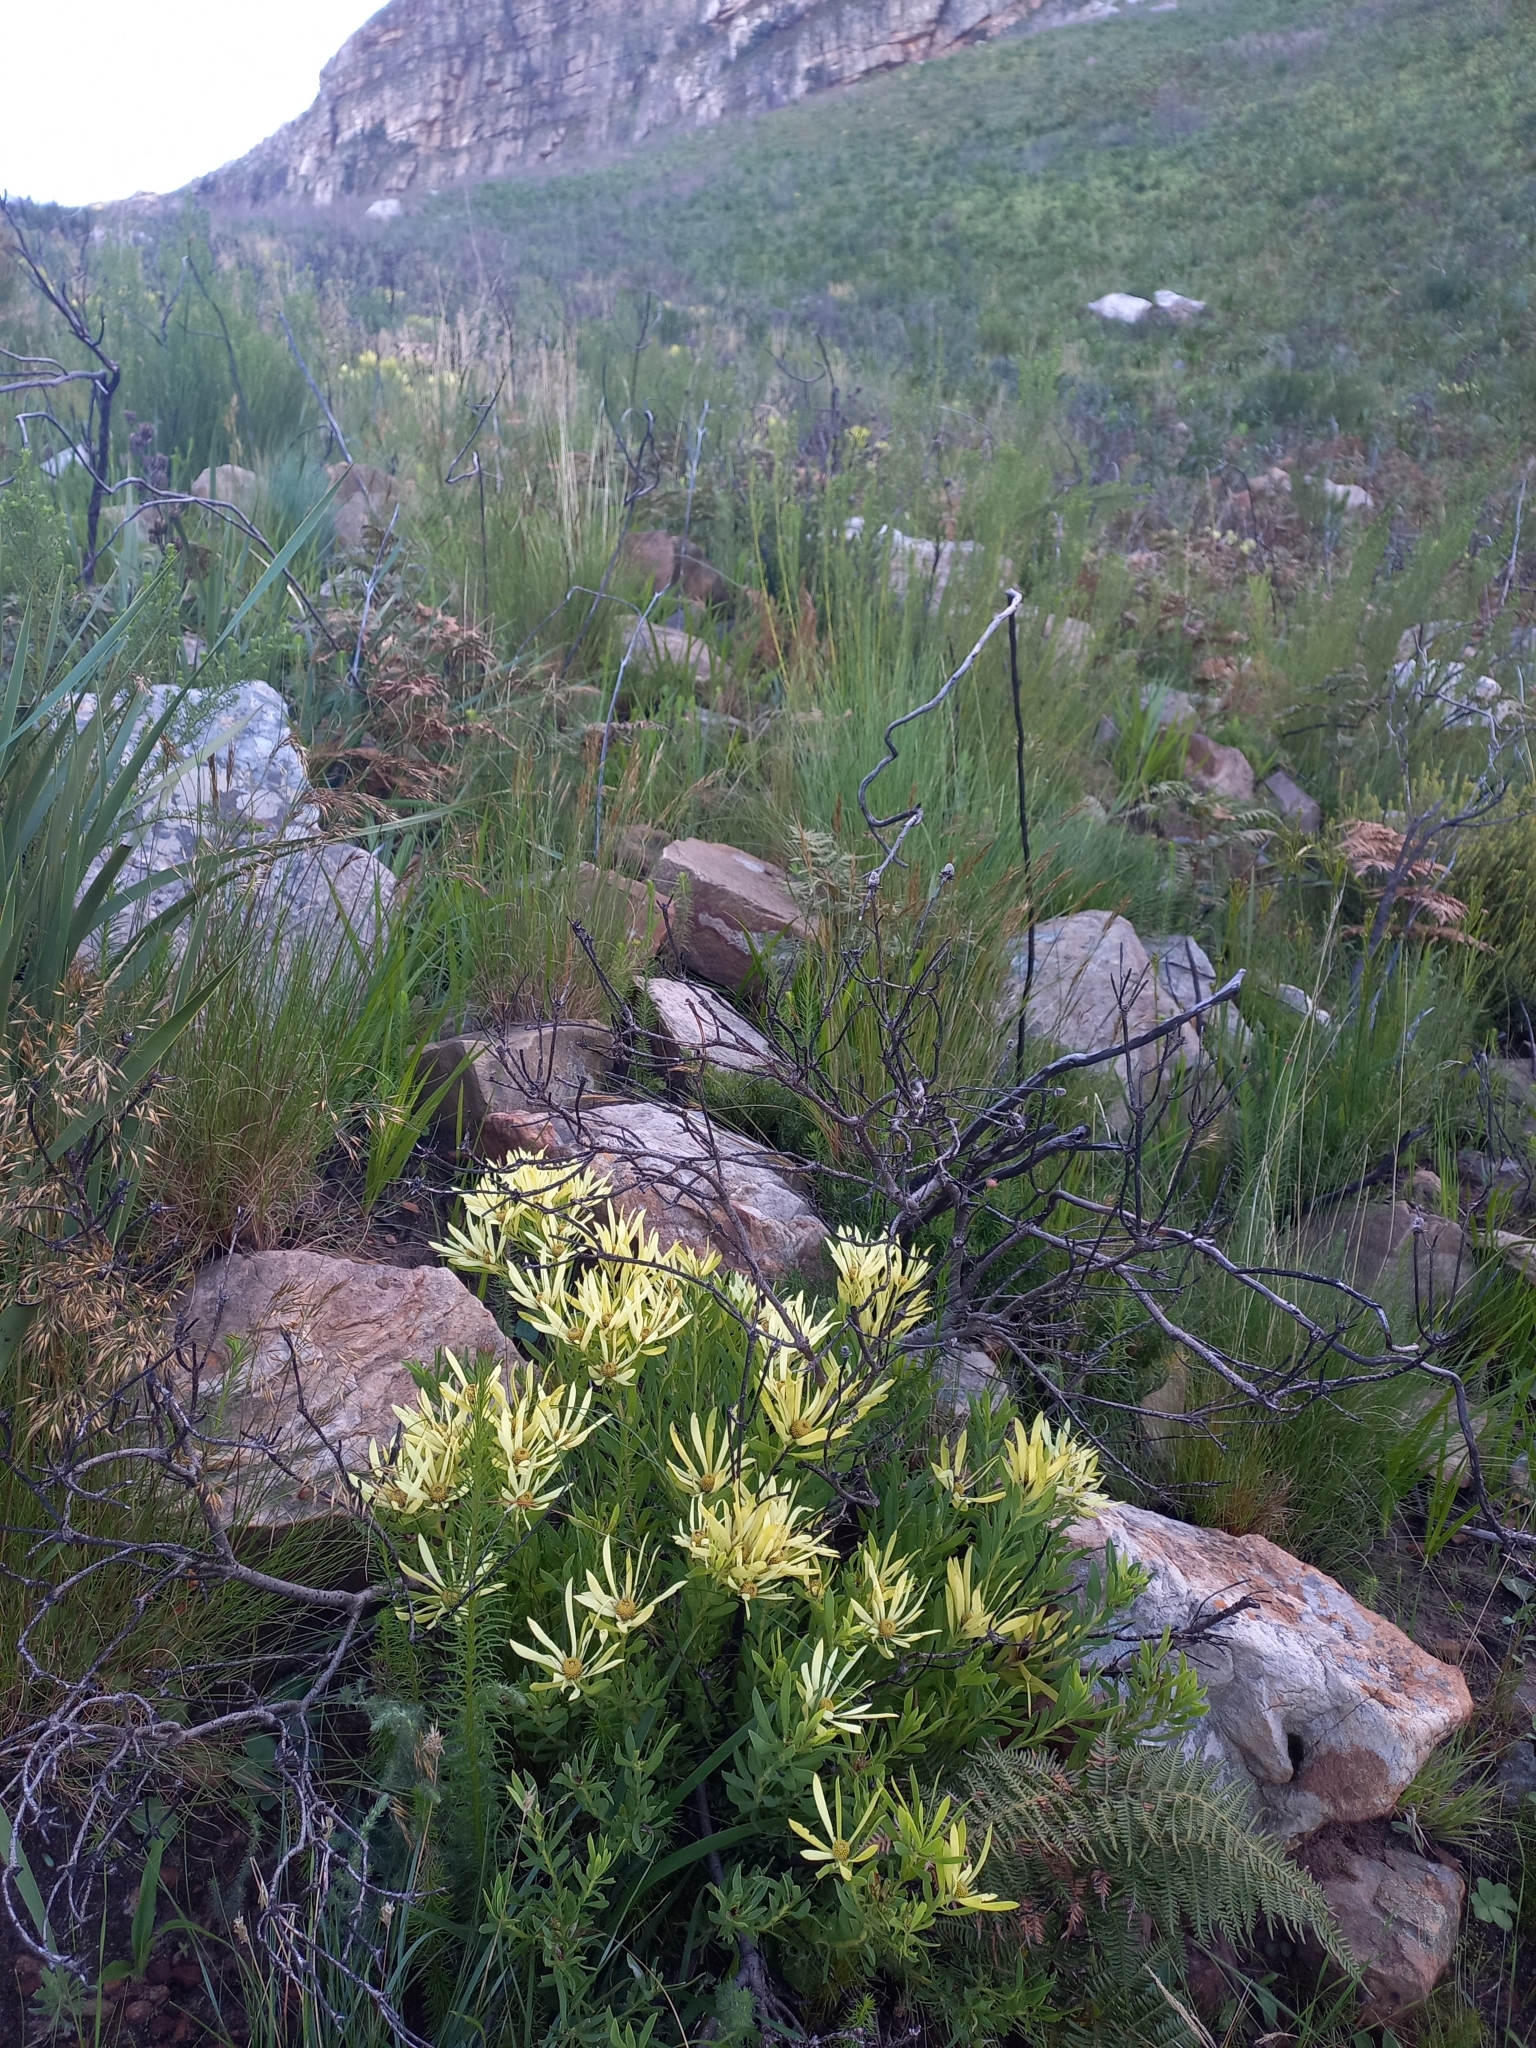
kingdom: Plantae
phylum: Tracheophyta
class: Magnoliopsida
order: Proteales
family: Proteaceae
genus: Leucadendron
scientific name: Leucadendron salignum
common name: Common sunshine conebush
